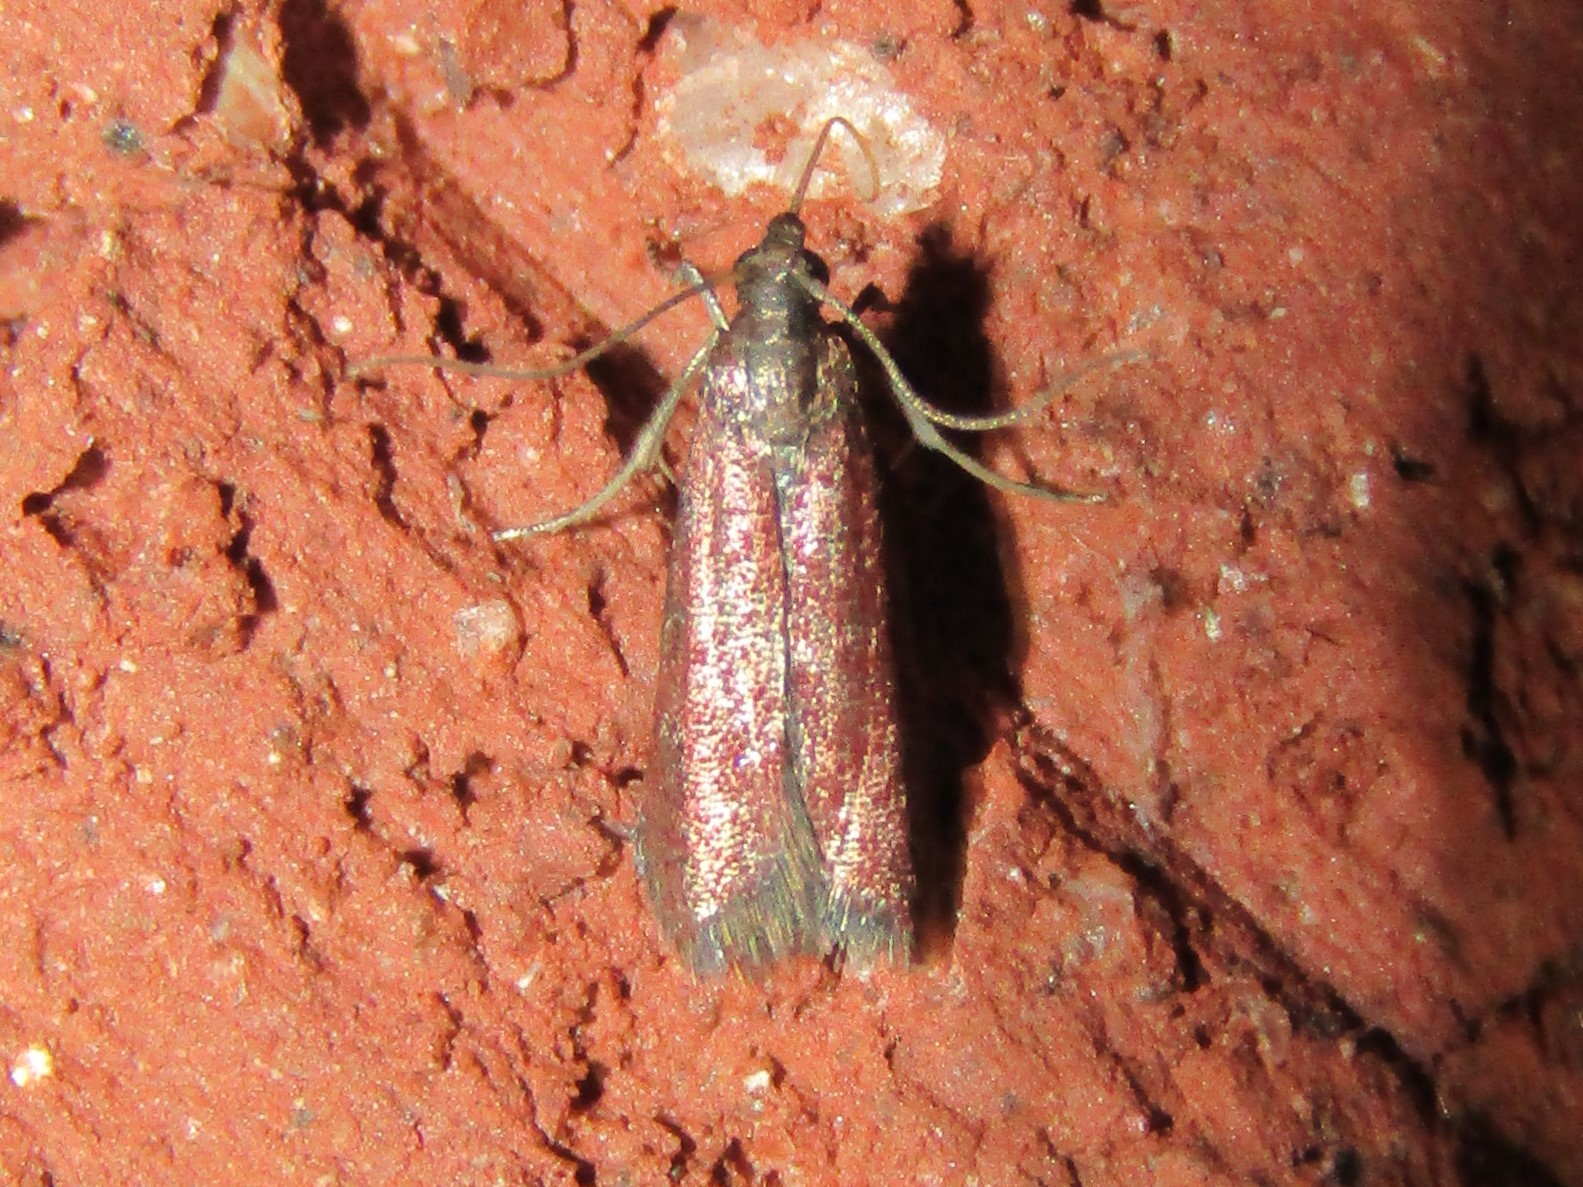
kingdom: Animalia
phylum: Arthropoda
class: Insecta
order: Lepidoptera
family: Pyralidae
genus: Varneria
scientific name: Varneria postremella
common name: Rusty varneria moth
